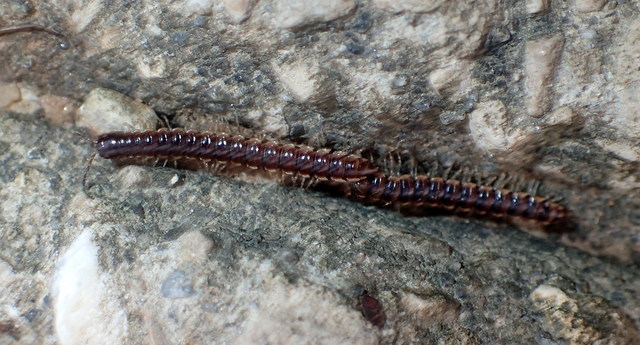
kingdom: Animalia
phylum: Arthropoda
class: Diplopoda
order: Polydesmida
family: Paradoxosomatidae
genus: Oxidus
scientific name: Oxidus gracilis
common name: Greenhouse millipede
